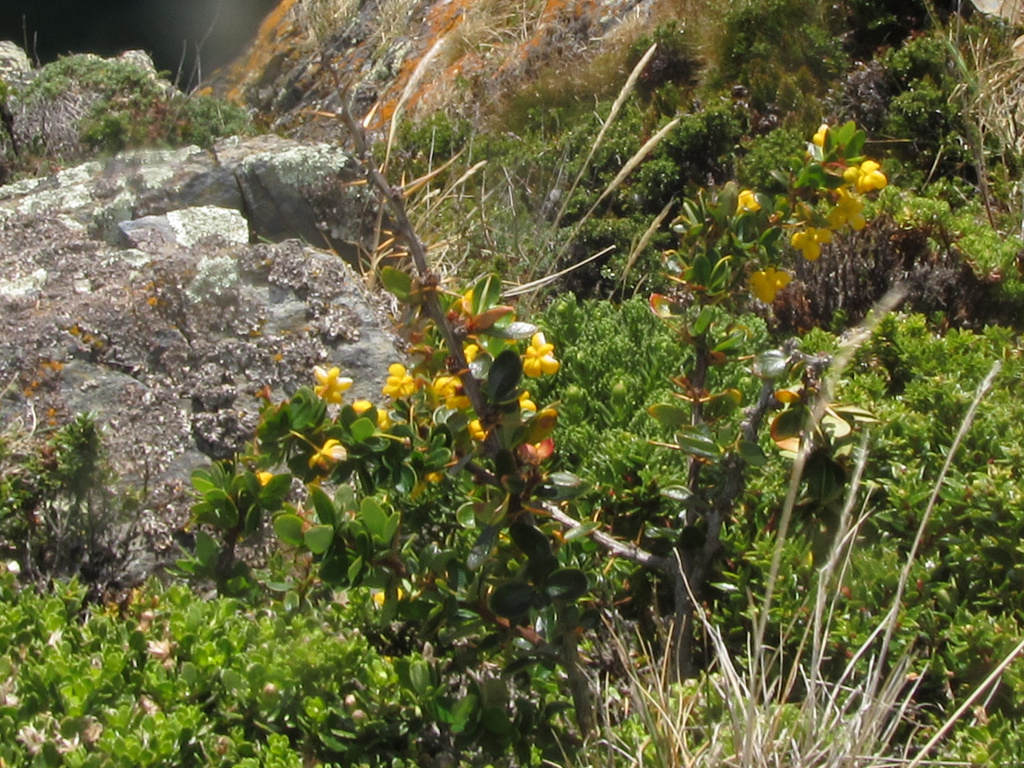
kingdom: Plantae
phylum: Tracheophyta
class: Magnoliopsida
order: Ranunculales
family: Berberidaceae
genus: Berberis
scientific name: Berberis microphylla
